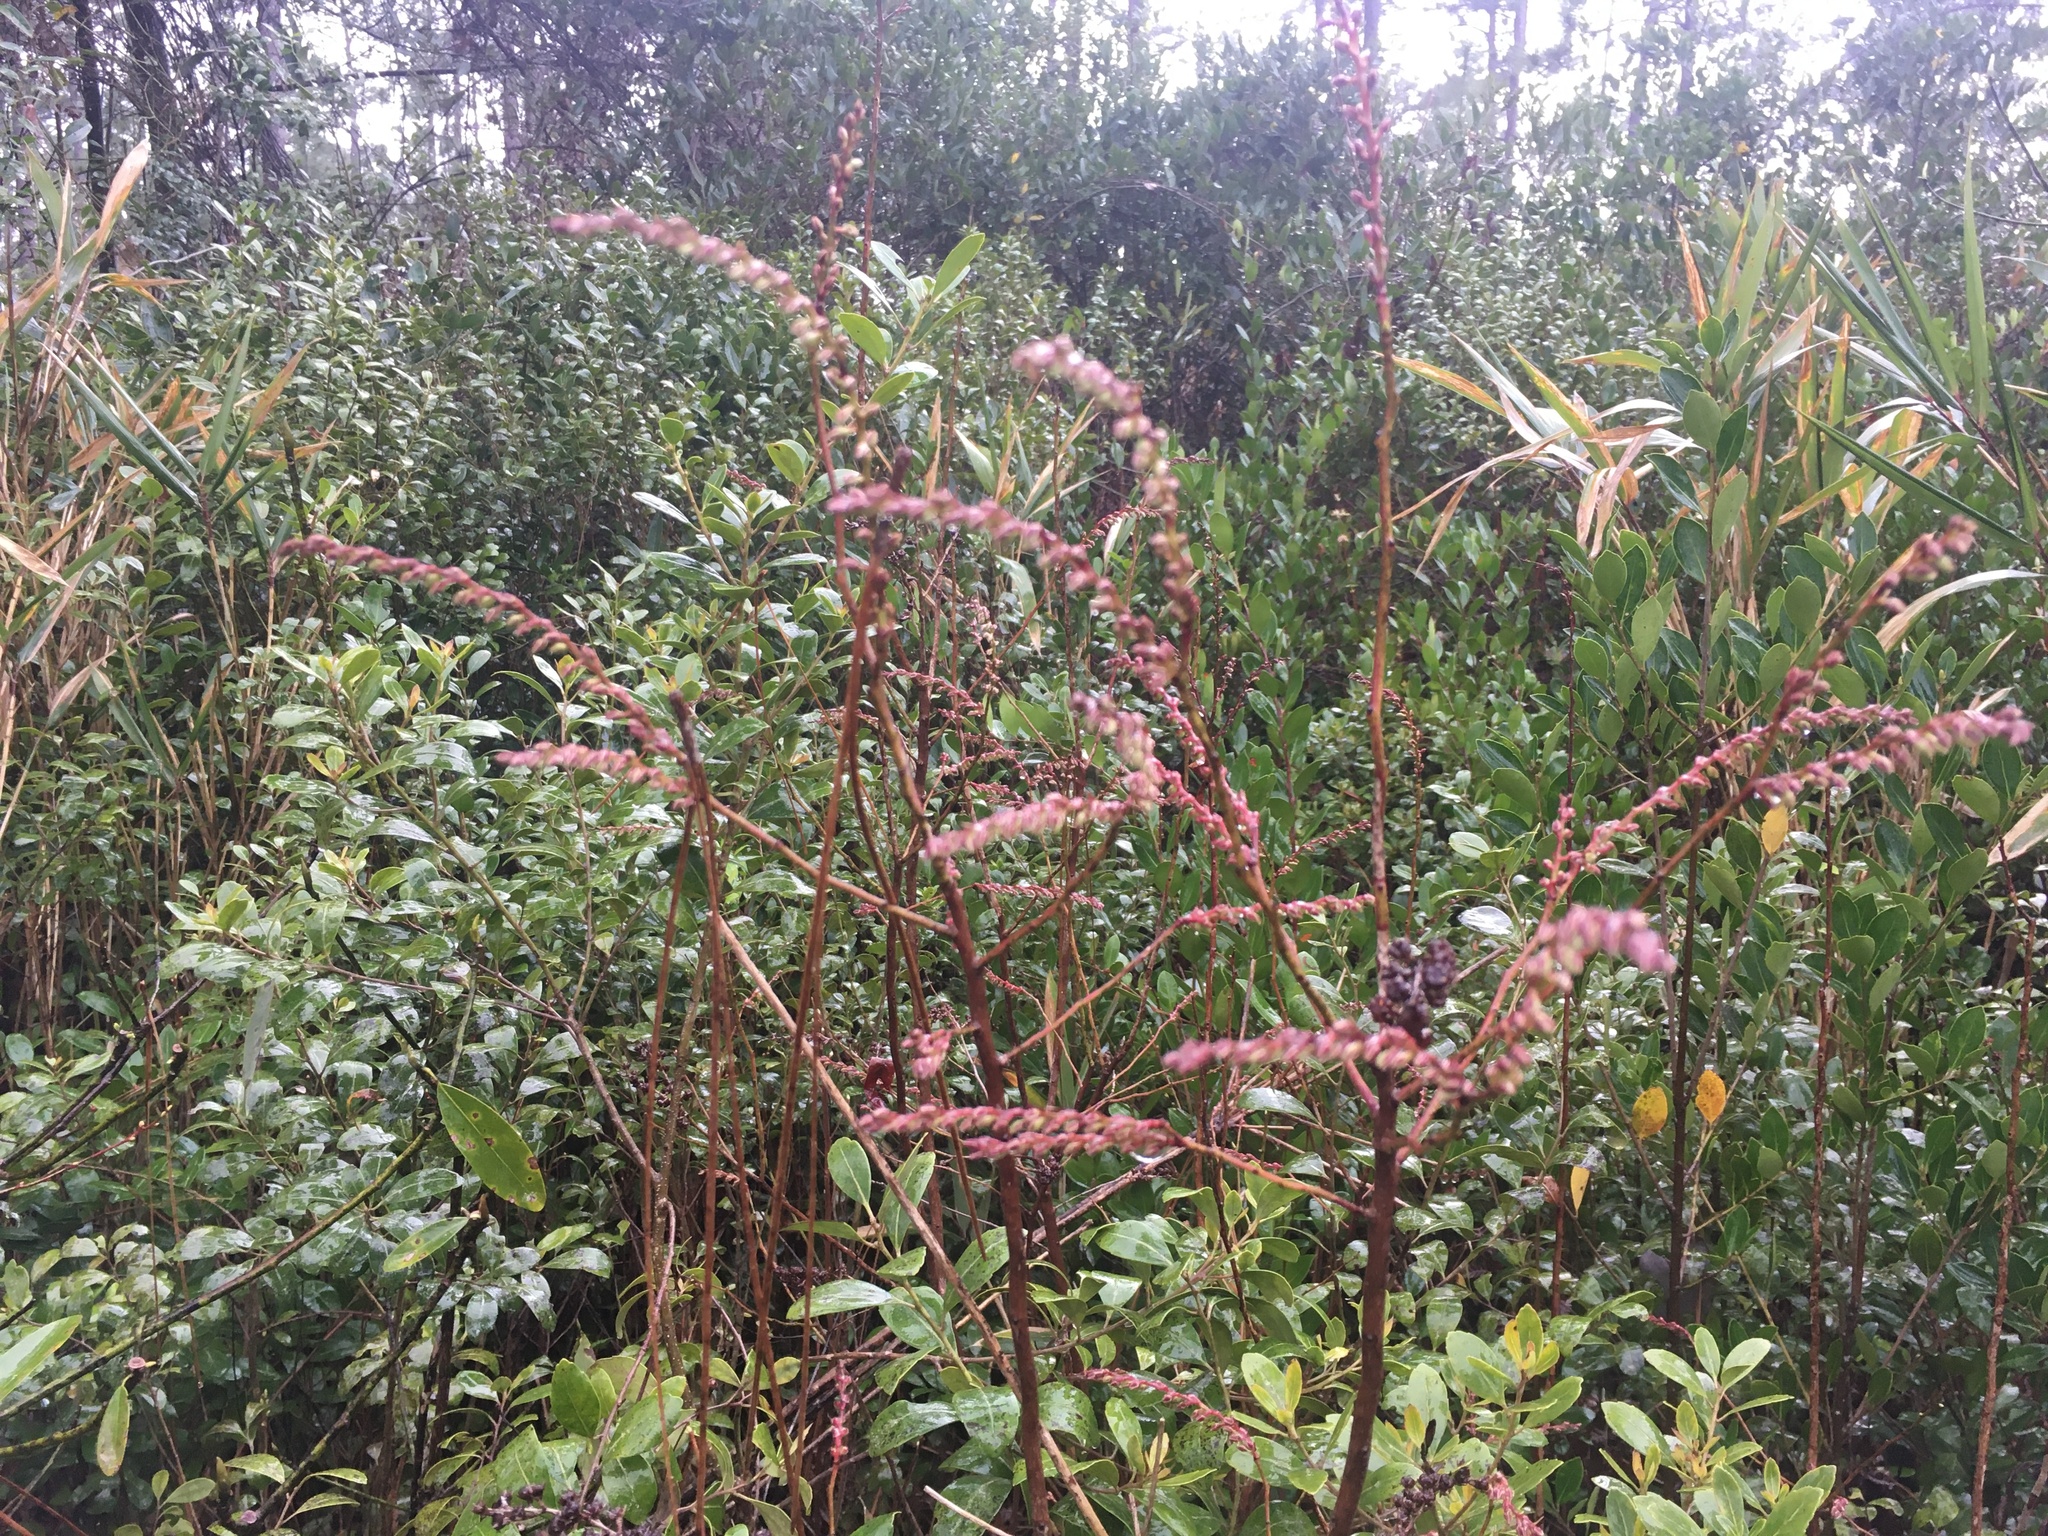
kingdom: Plantae
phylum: Tracheophyta
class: Magnoliopsida
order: Ericales
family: Ericaceae
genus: Eubotrys
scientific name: Eubotrys racemosa
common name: Fetterbush
